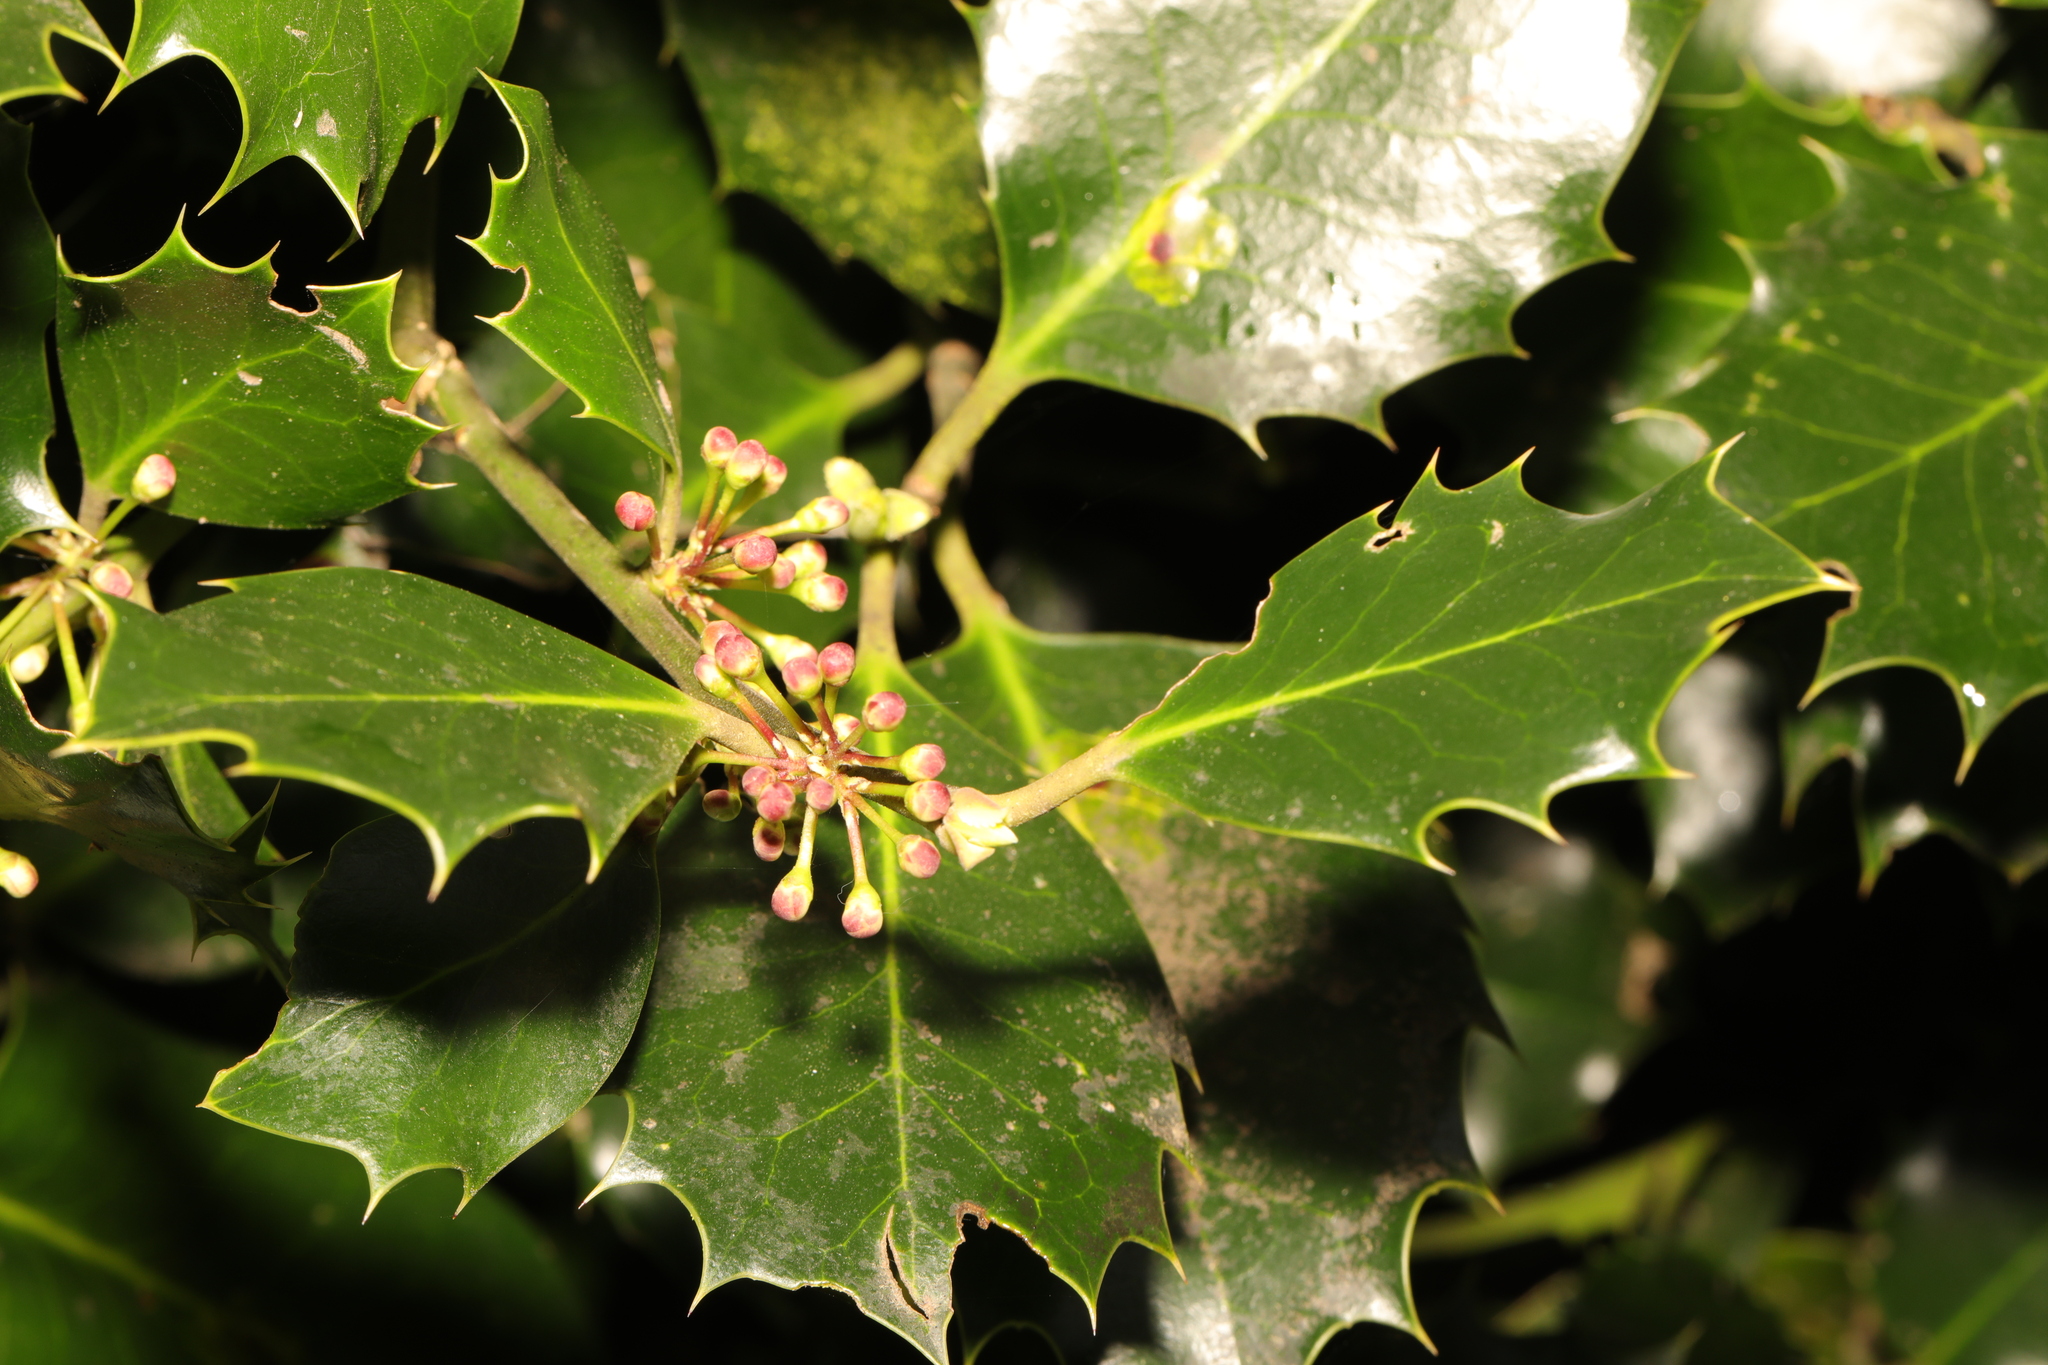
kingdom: Plantae
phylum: Tracheophyta
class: Magnoliopsida
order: Aquifoliales
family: Aquifoliaceae
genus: Ilex
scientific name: Ilex aquifolium
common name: English holly
